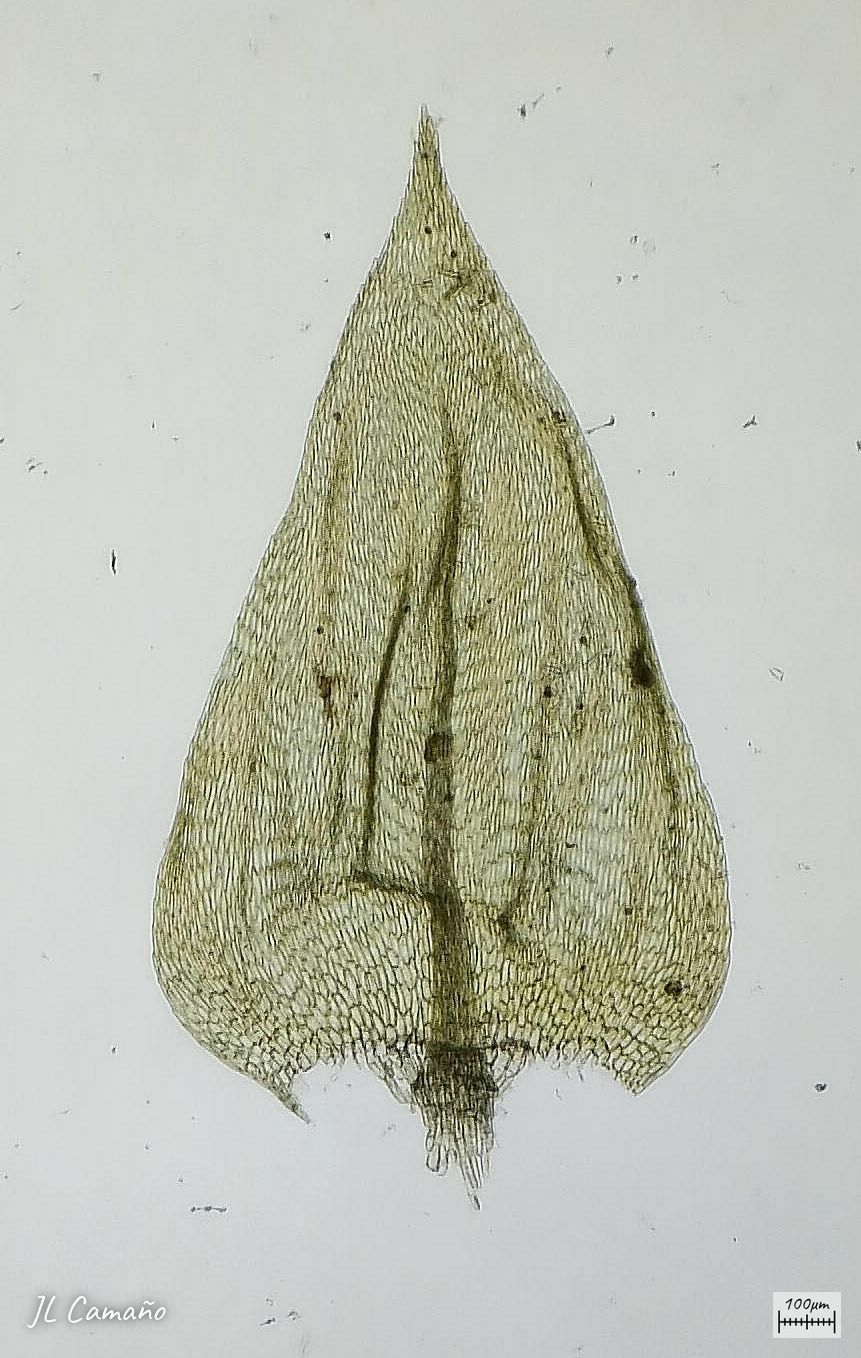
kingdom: Plantae
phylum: Bryophyta
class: Bryopsida
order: Hypnales
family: Brachytheciaceae
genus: Brachythecium
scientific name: Brachythecium rivulare
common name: River ragged moss
